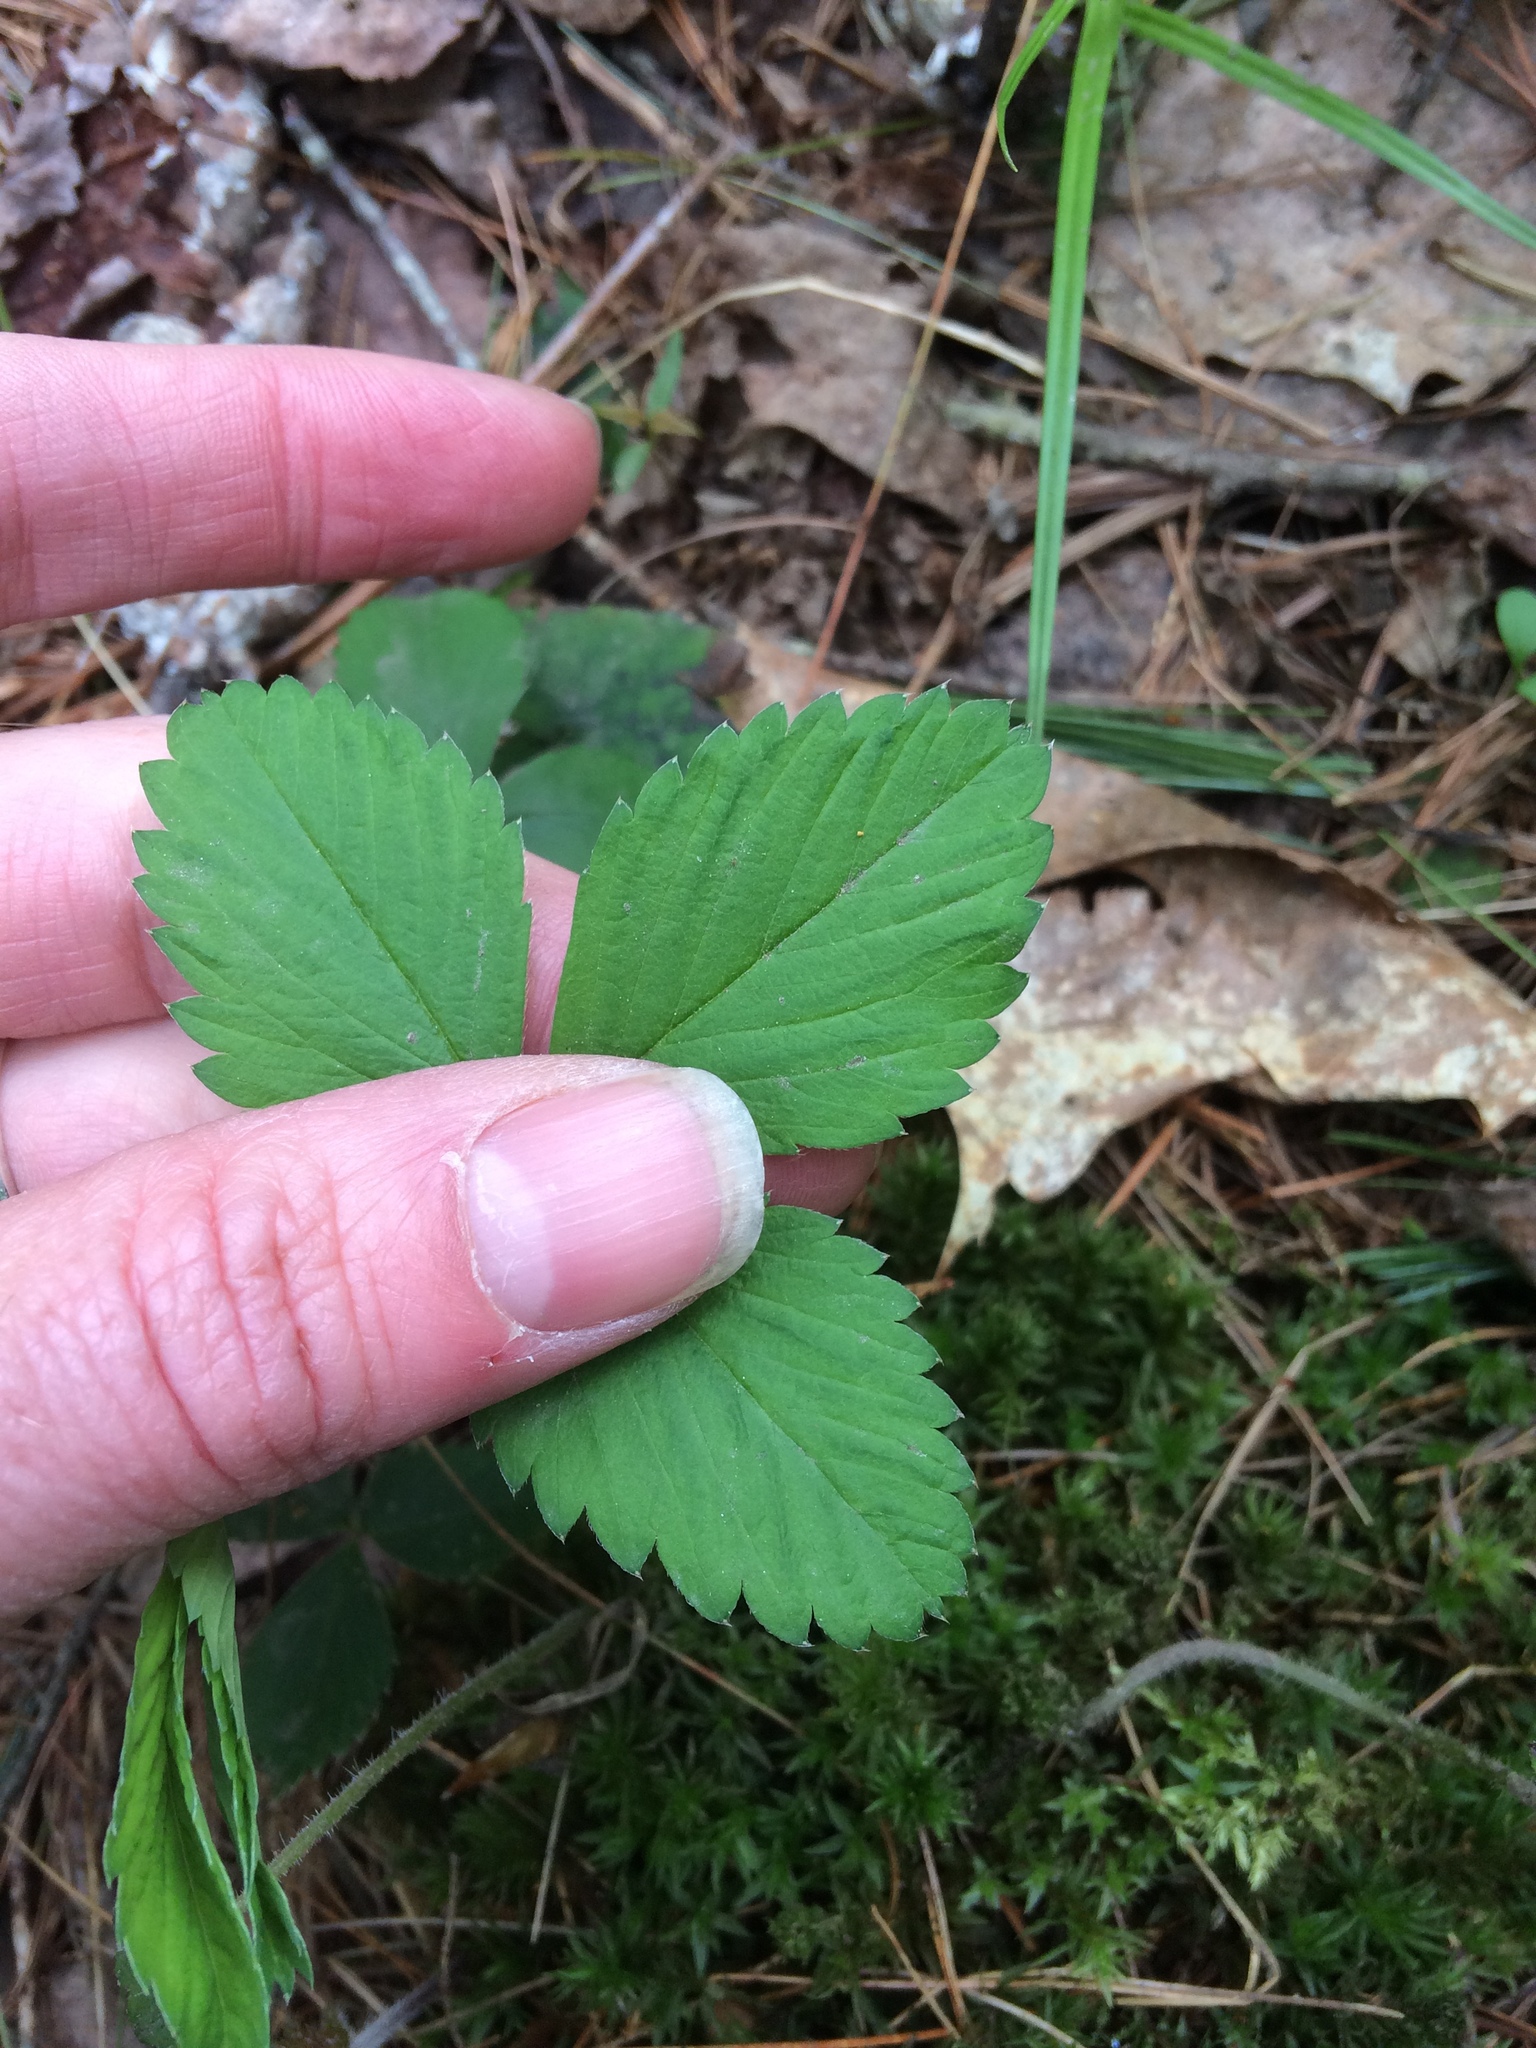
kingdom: Plantae
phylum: Tracheophyta
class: Magnoliopsida
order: Rosales
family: Rosaceae
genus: Fragaria
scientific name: Fragaria virginiana
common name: Thickleaved wild strawberry
